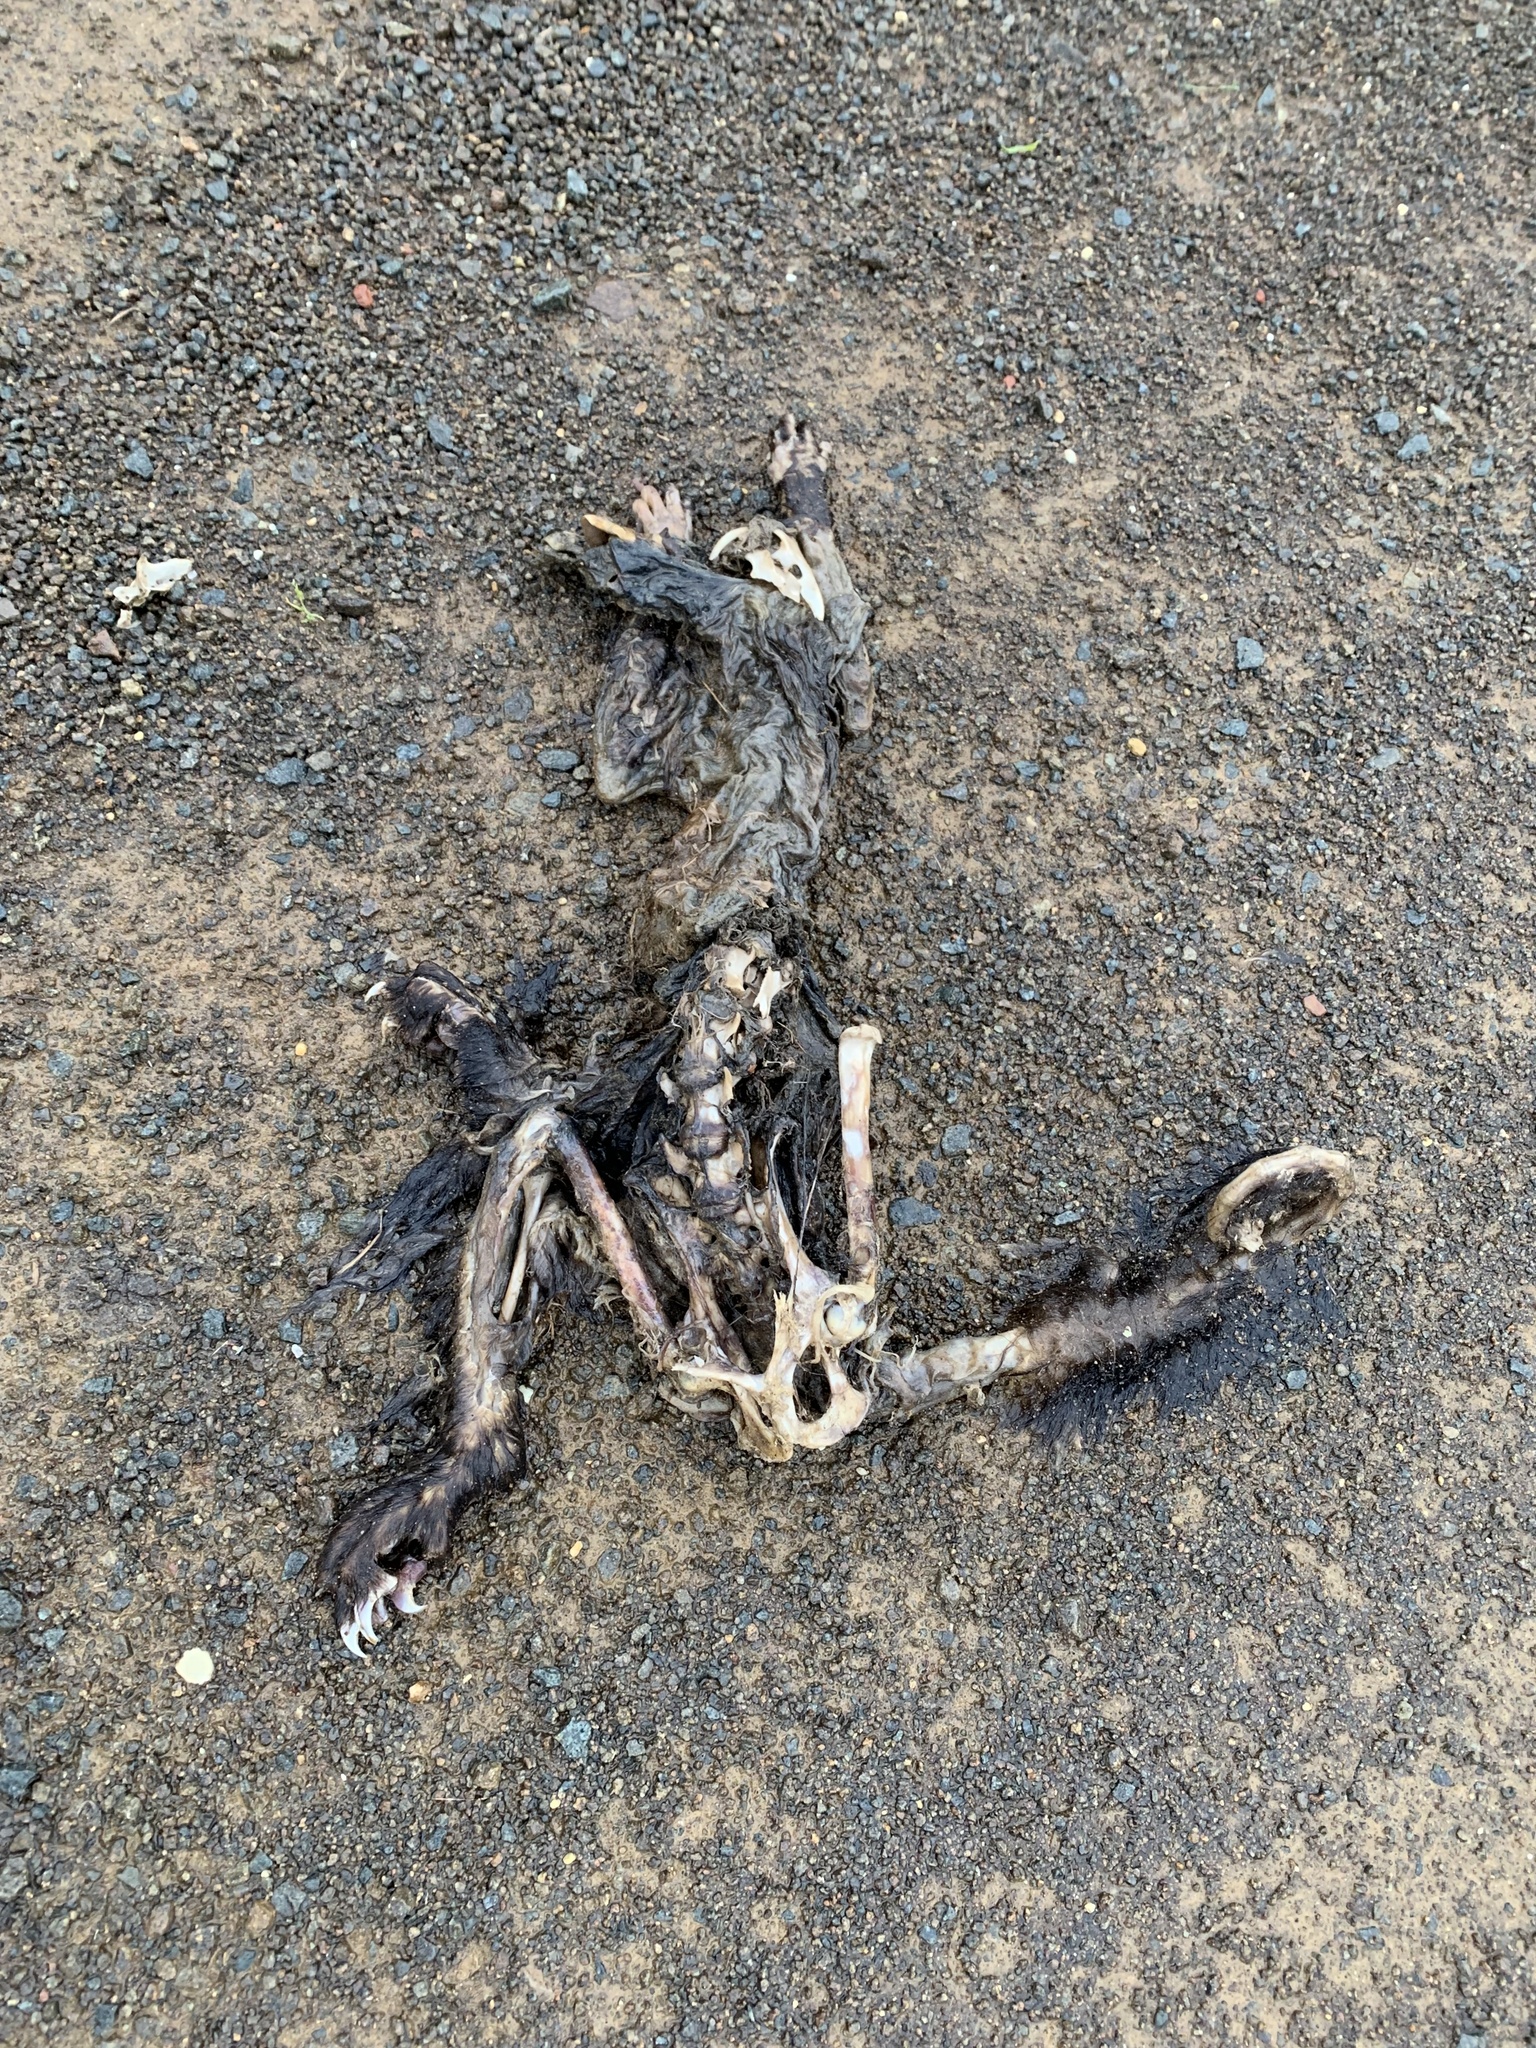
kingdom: Animalia
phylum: Chordata
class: Mammalia
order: Diprotodontia
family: Phalangeridae
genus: Trichosurus
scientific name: Trichosurus vulpecula
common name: Common brushtail
